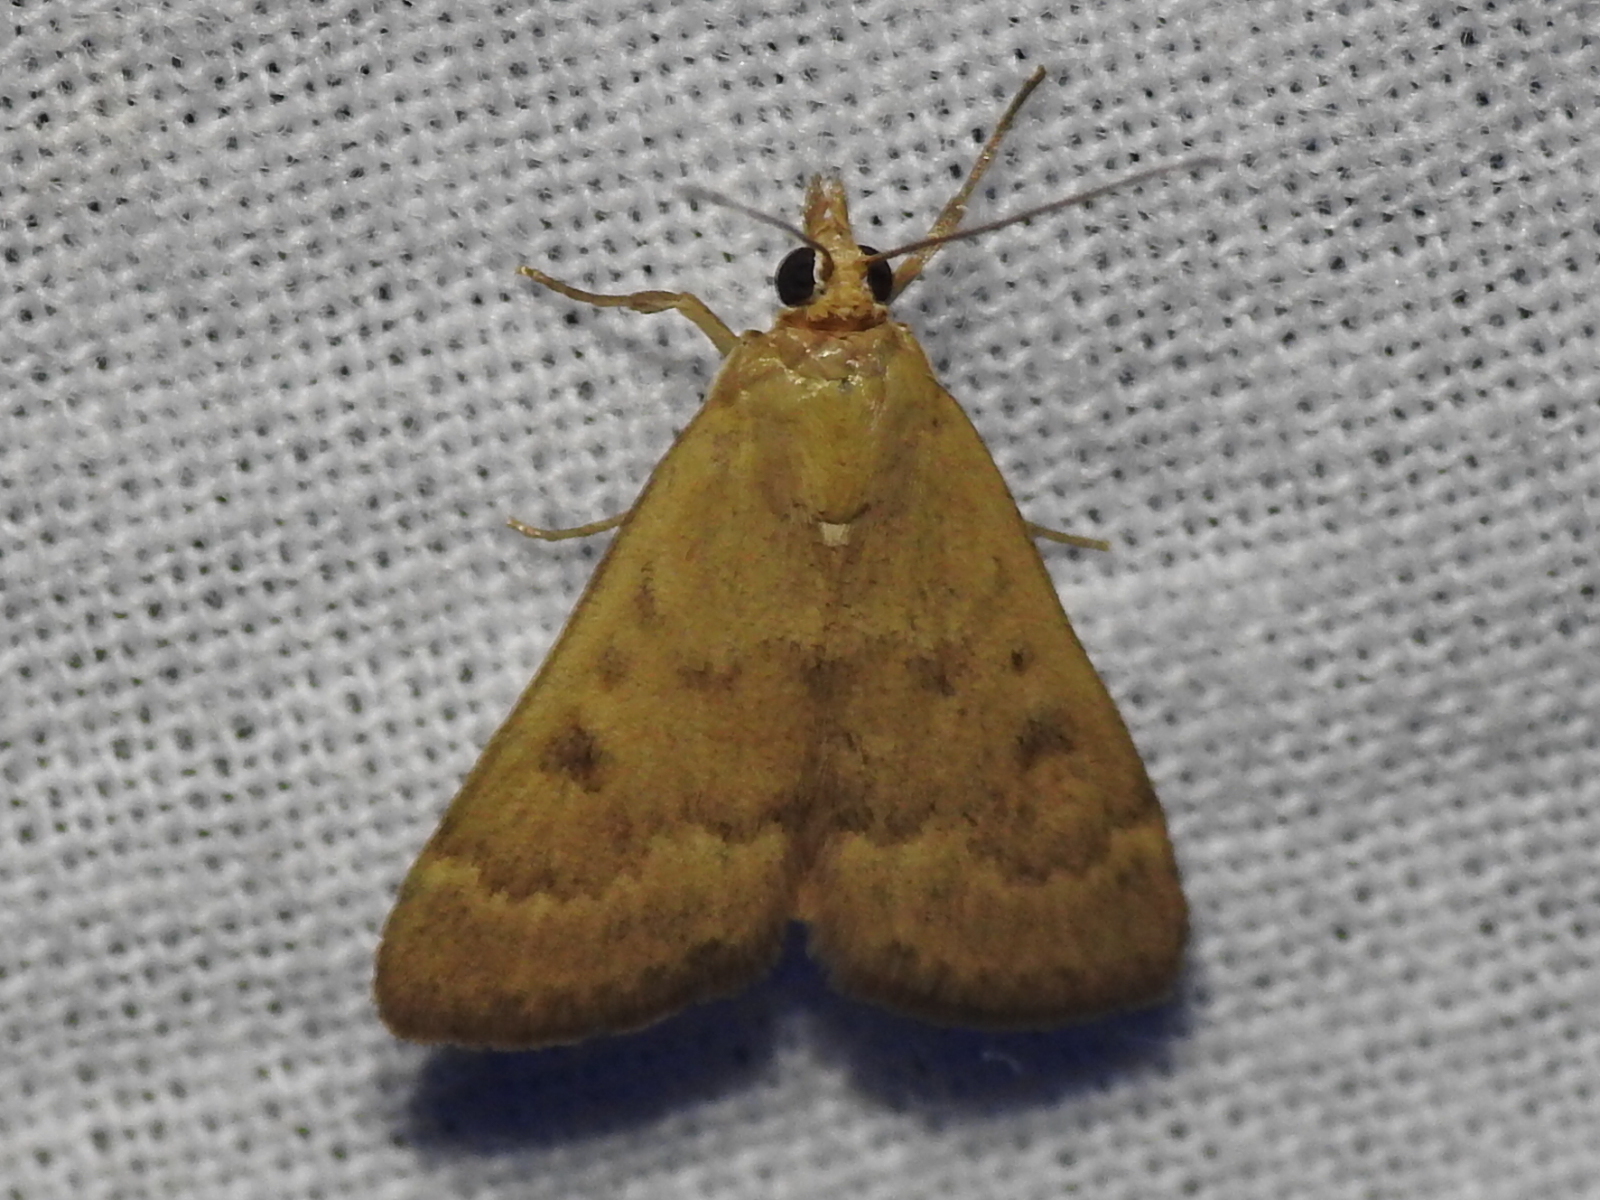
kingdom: Animalia
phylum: Arthropoda
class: Insecta
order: Lepidoptera
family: Crambidae
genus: Achyra
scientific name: Achyra rantalis
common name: Garden webworm
